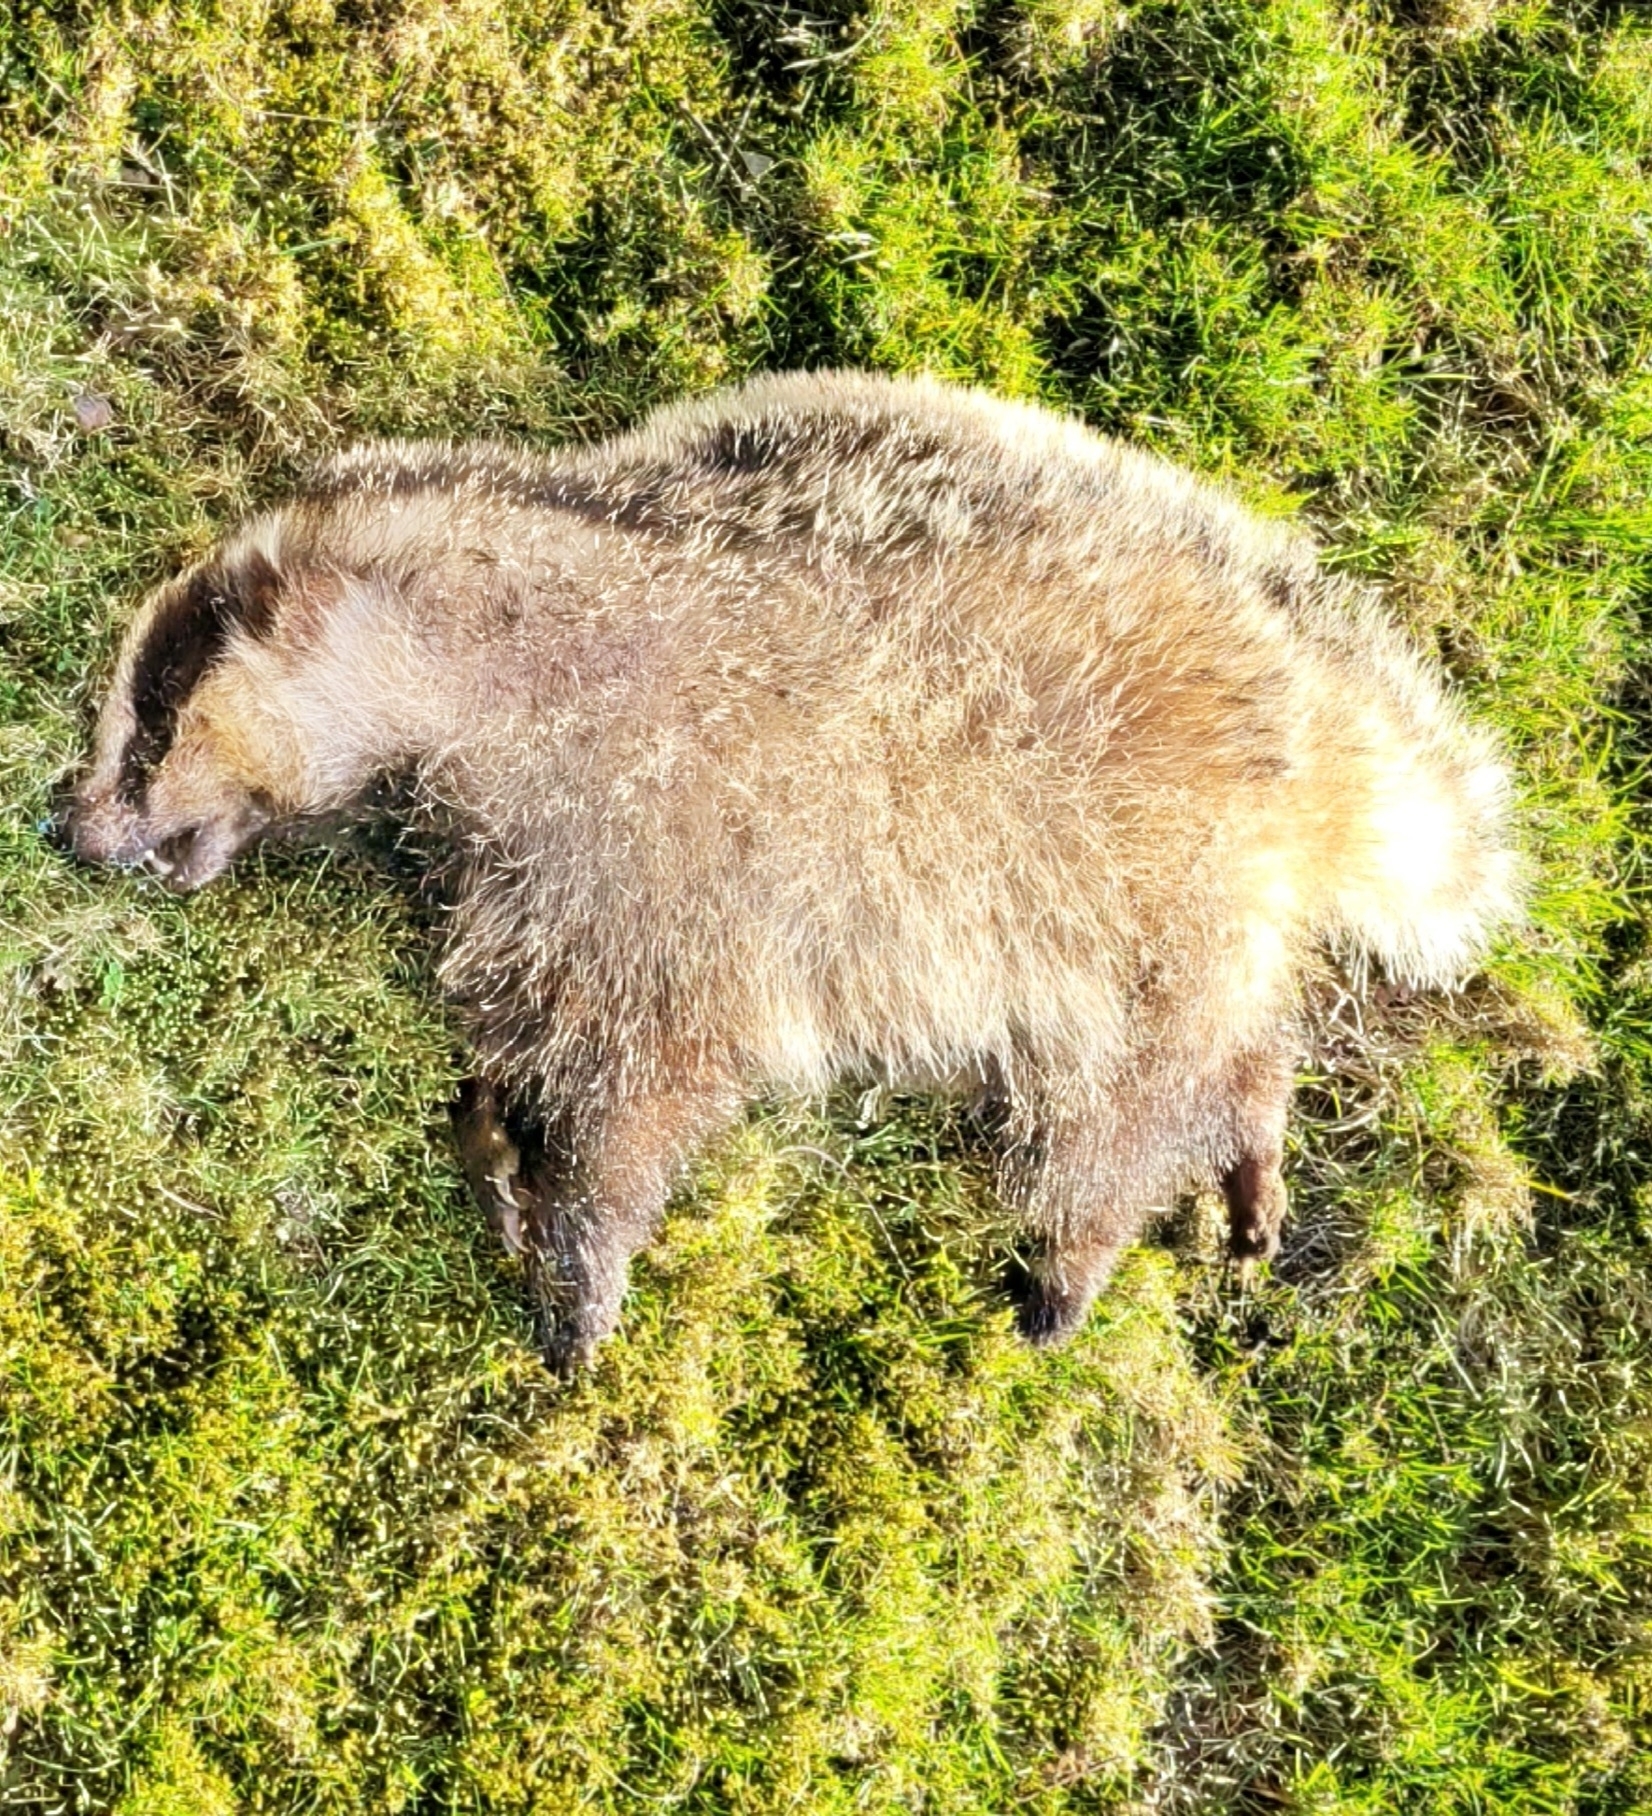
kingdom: Animalia
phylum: Chordata
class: Mammalia
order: Carnivora
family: Mustelidae
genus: Meles
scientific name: Meles meles
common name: Eurasian badger
